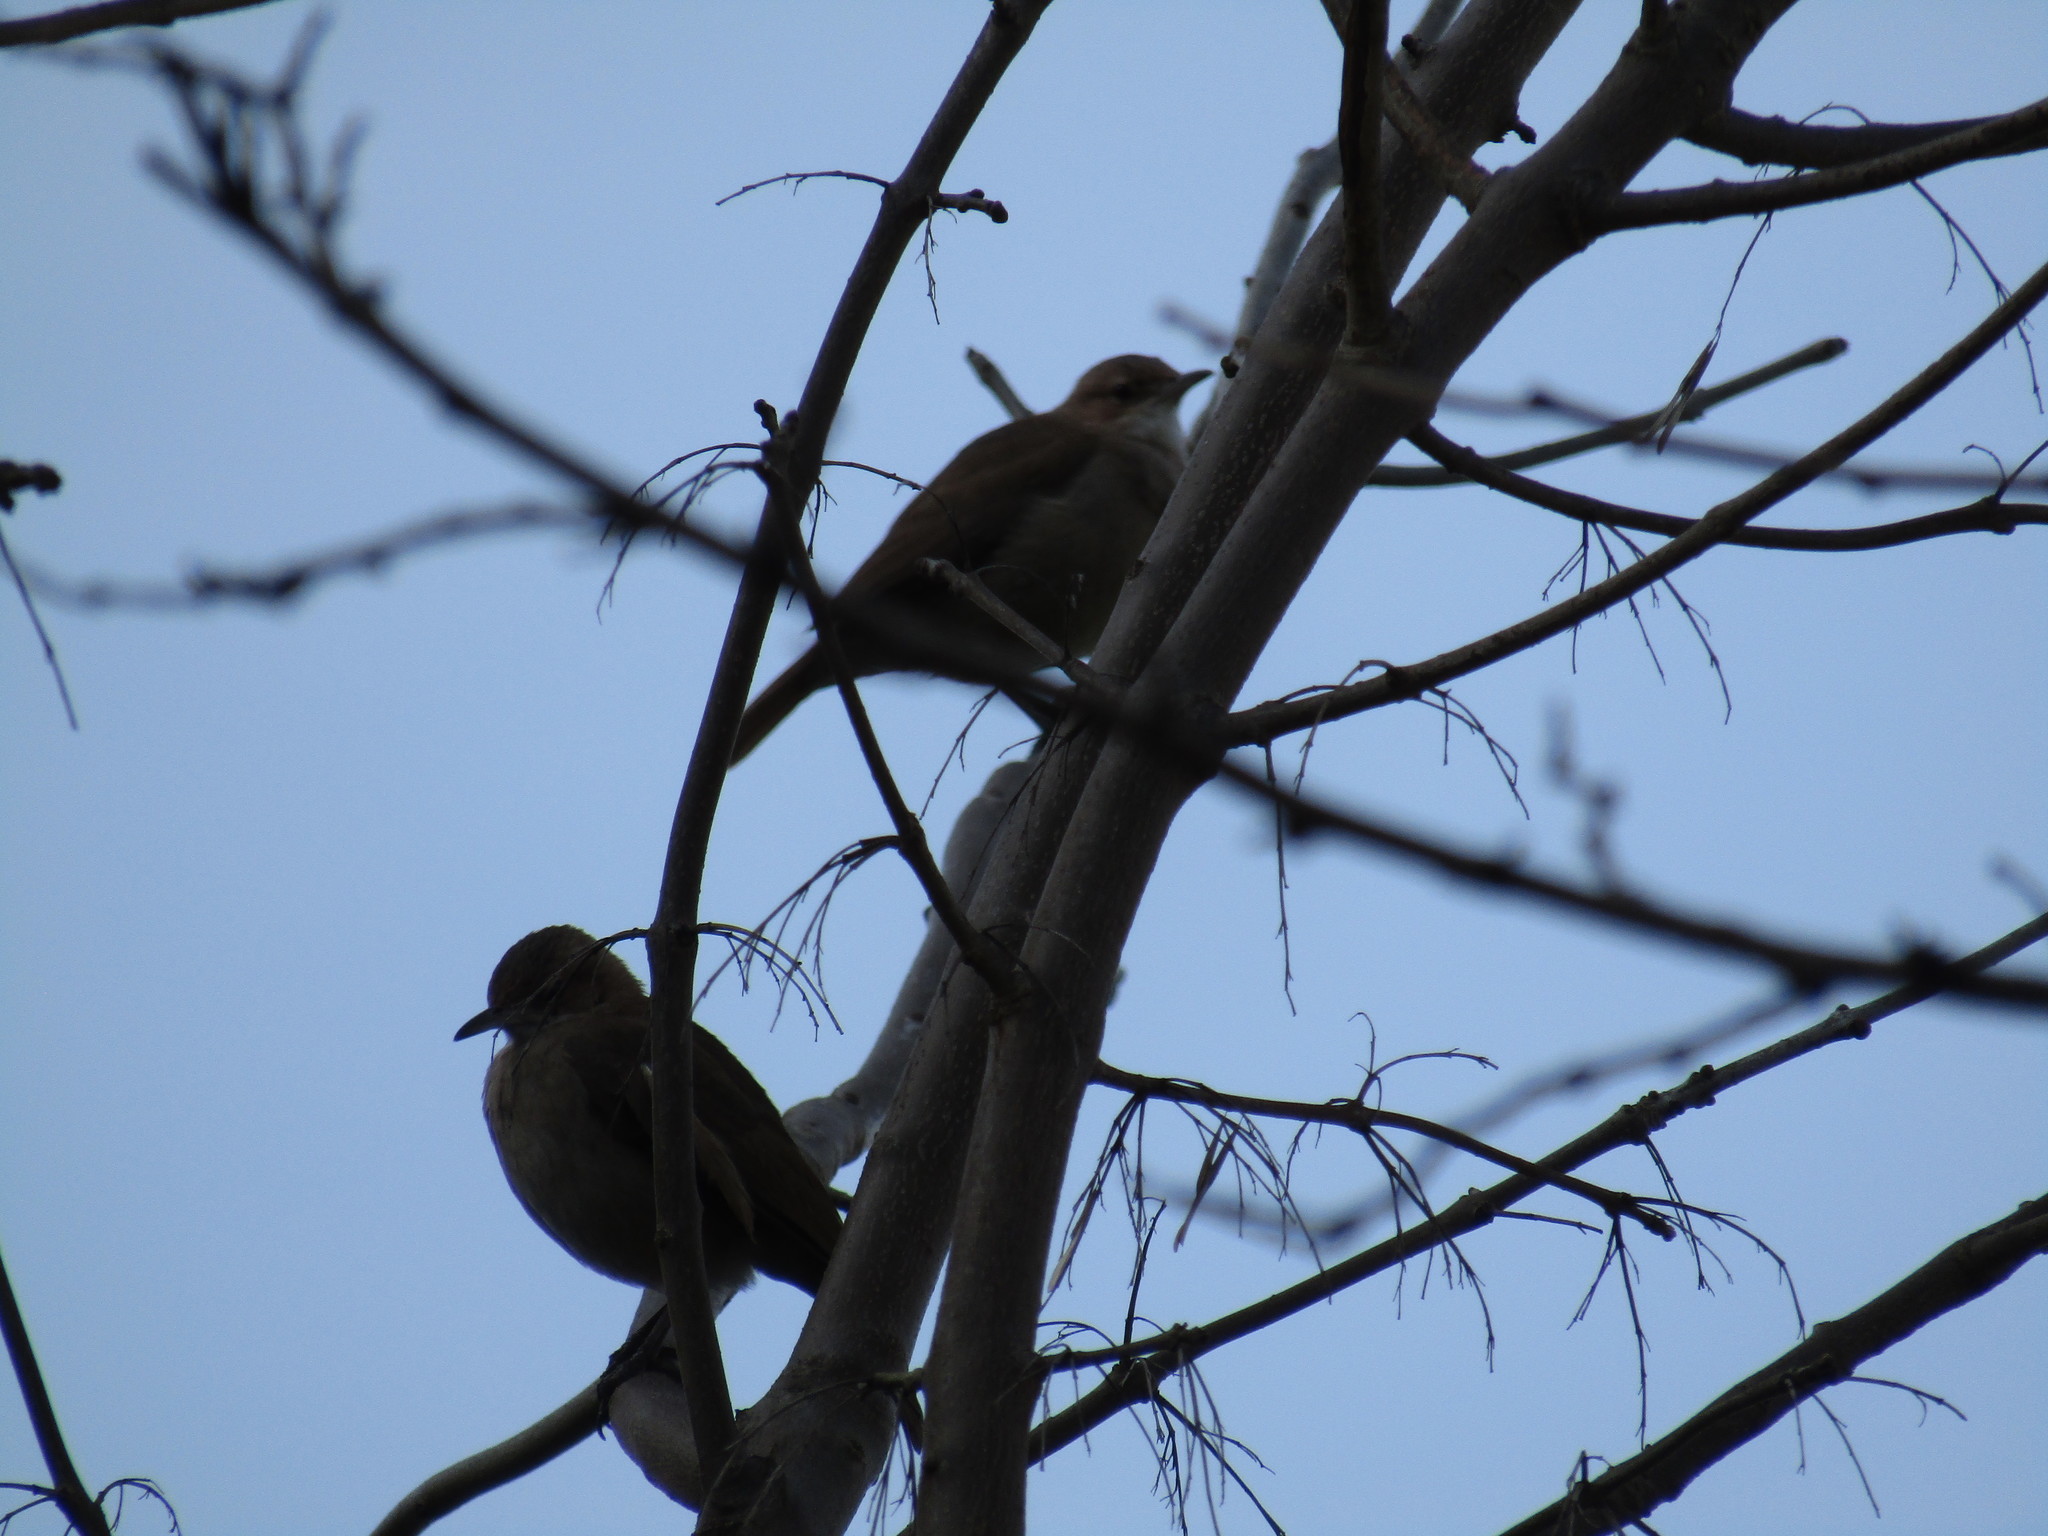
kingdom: Animalia
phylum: Chordata
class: Aves
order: Passeriformes
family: Furnariidae
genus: Furnarius
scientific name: Furnarius rufus
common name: Rufous hornero
